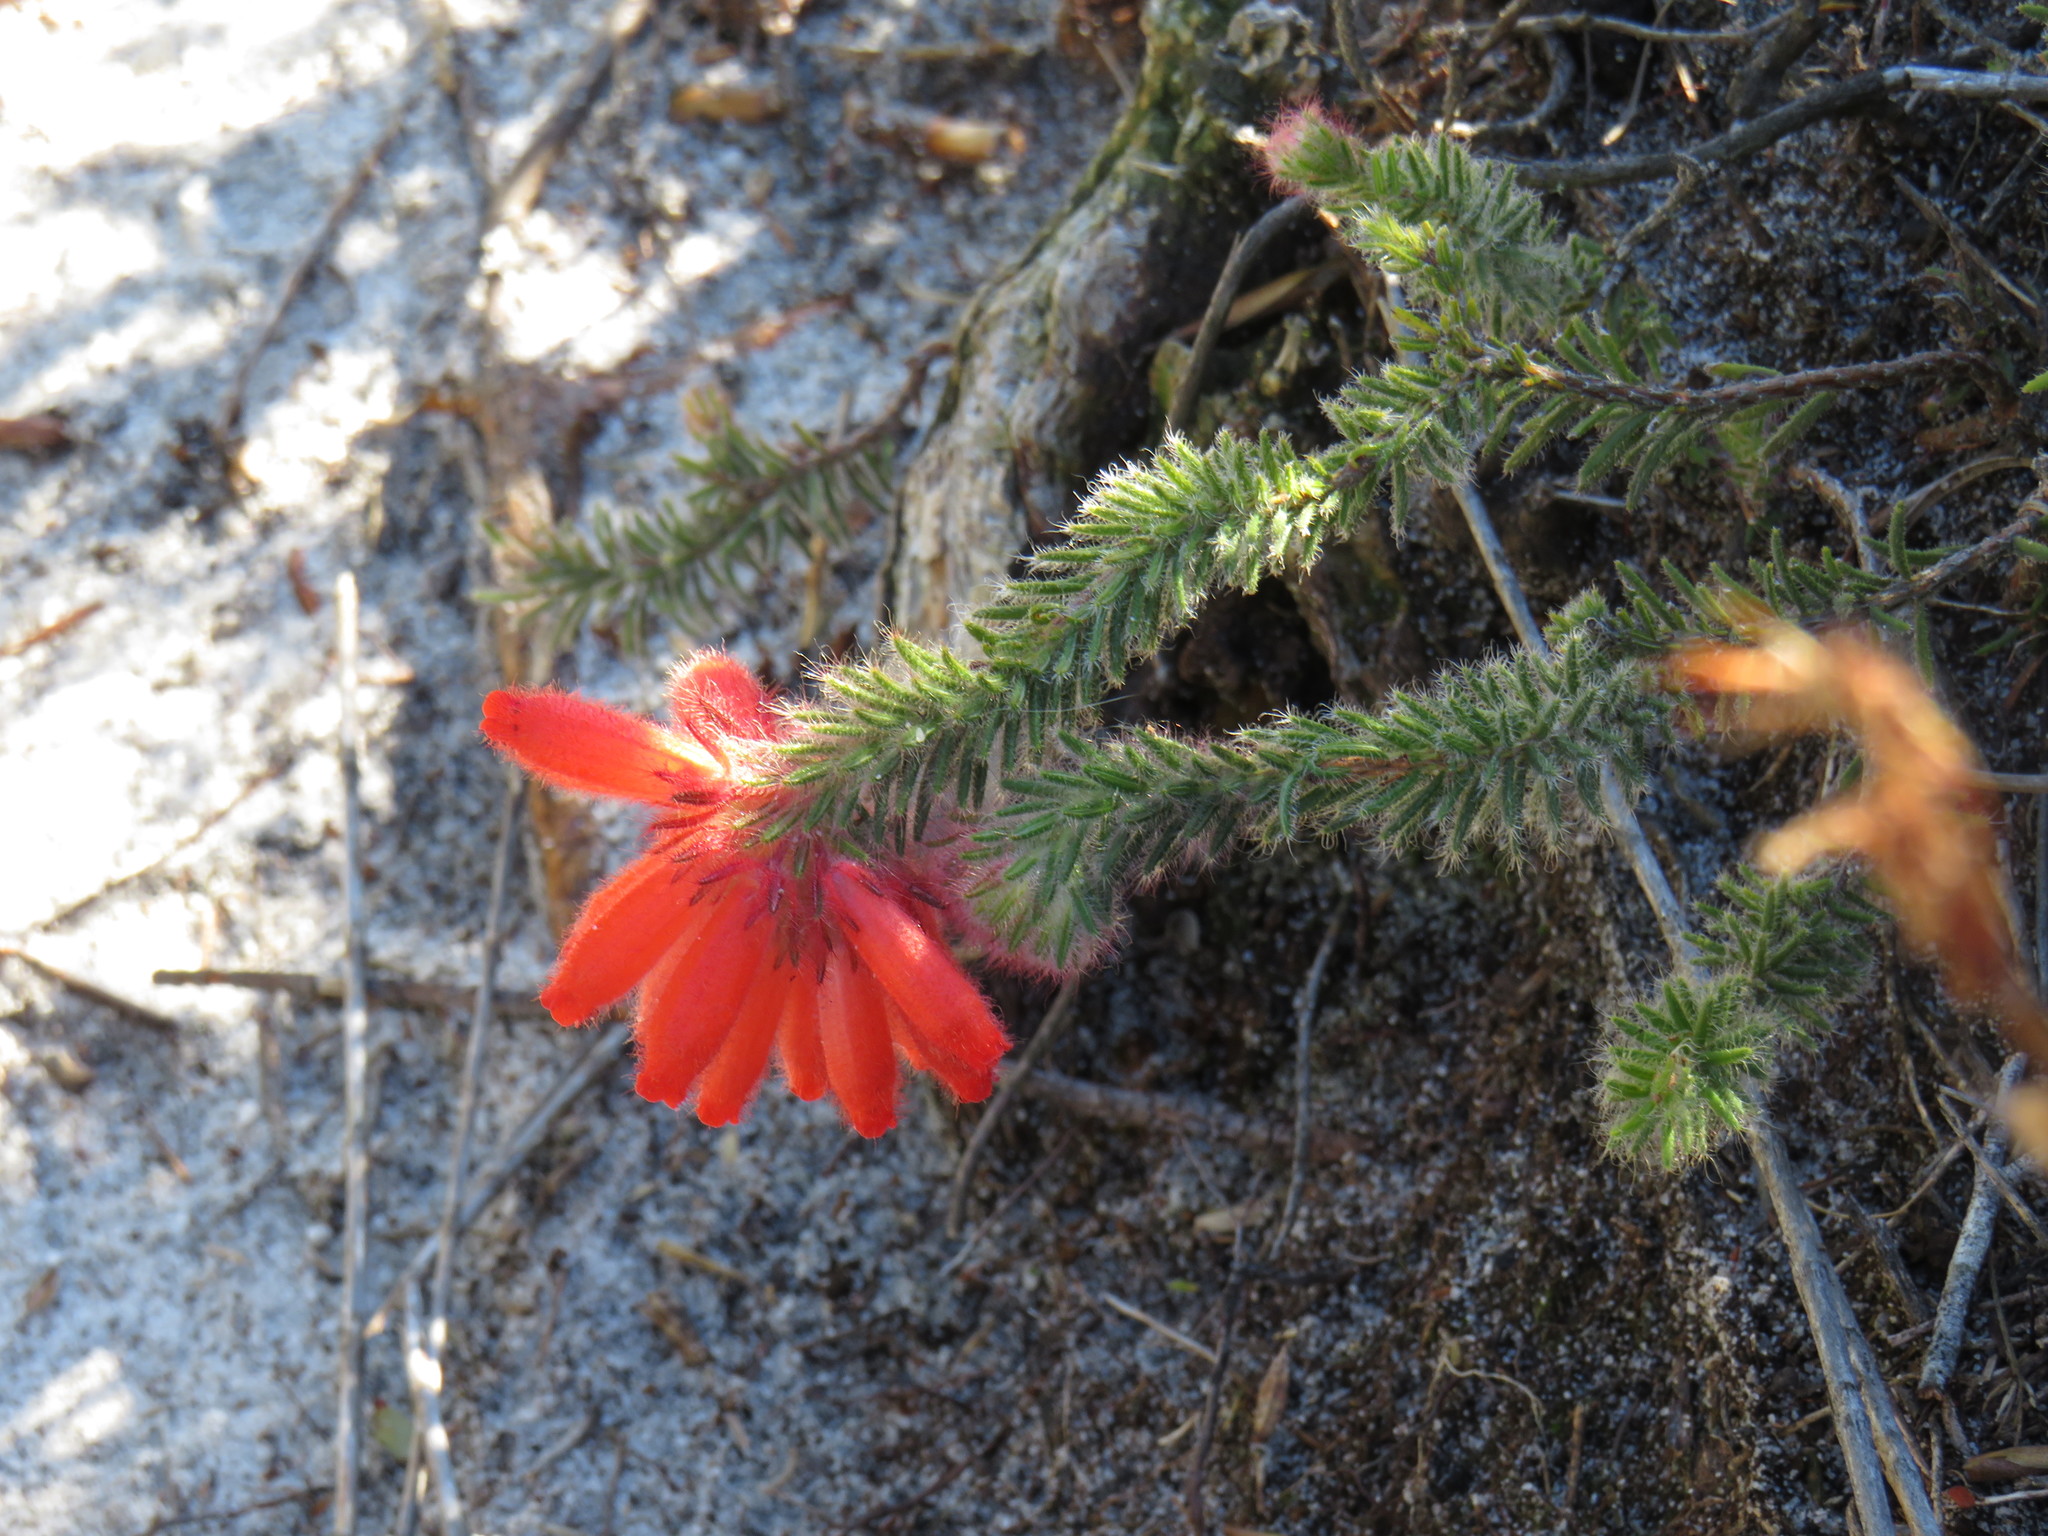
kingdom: Plantae
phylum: Tracheophyta
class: Magnoliopsida
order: Ericales
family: Ericaceae
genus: Erica
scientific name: Erica cerinthoides
